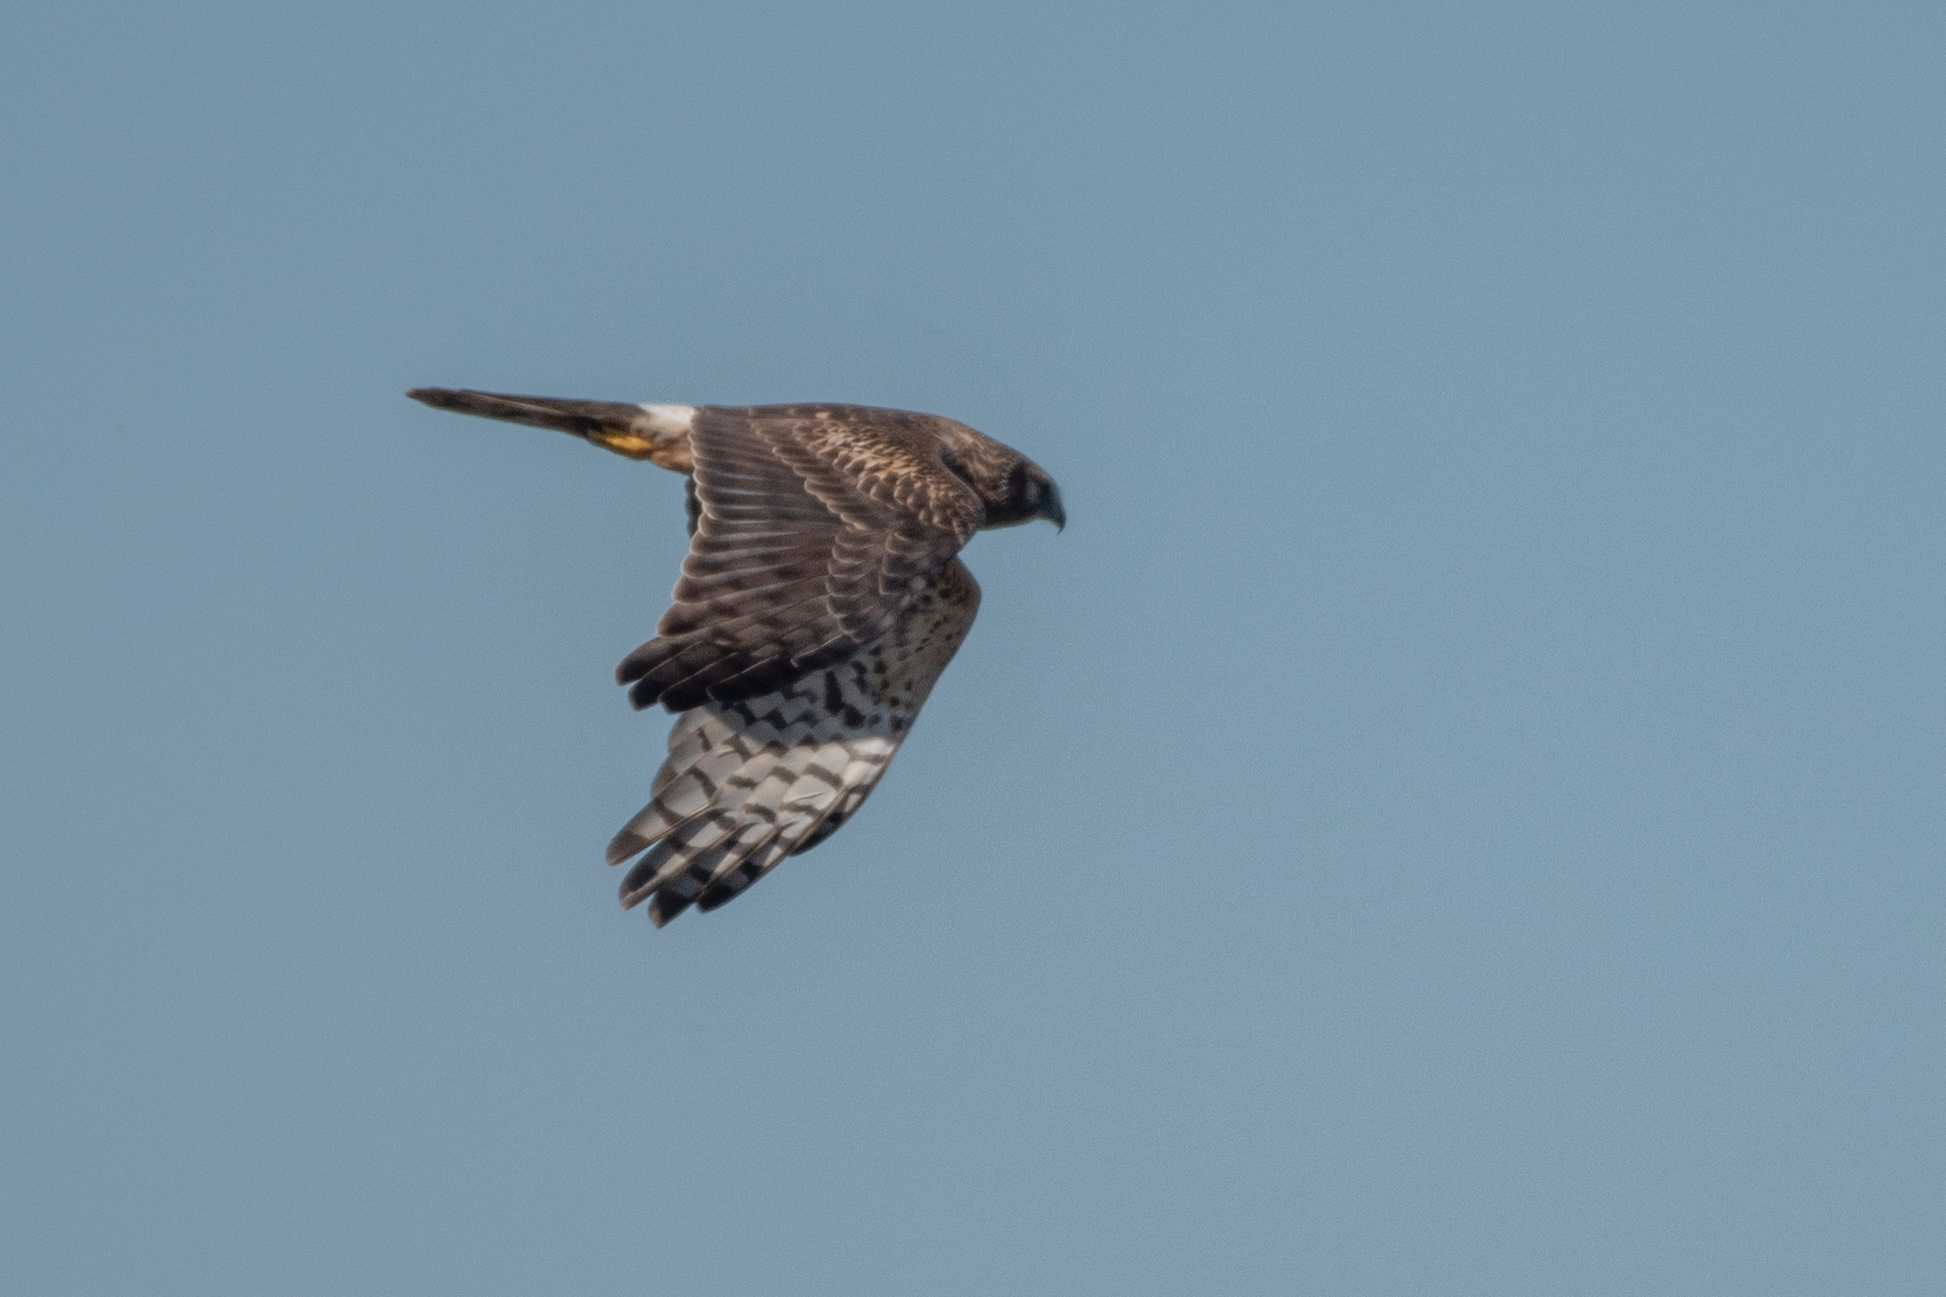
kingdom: Animalia
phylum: Chordata
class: Aves
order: Accipitriformes
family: Accipitridae
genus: Circus
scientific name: Circus cyaneus
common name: Hen harrier
